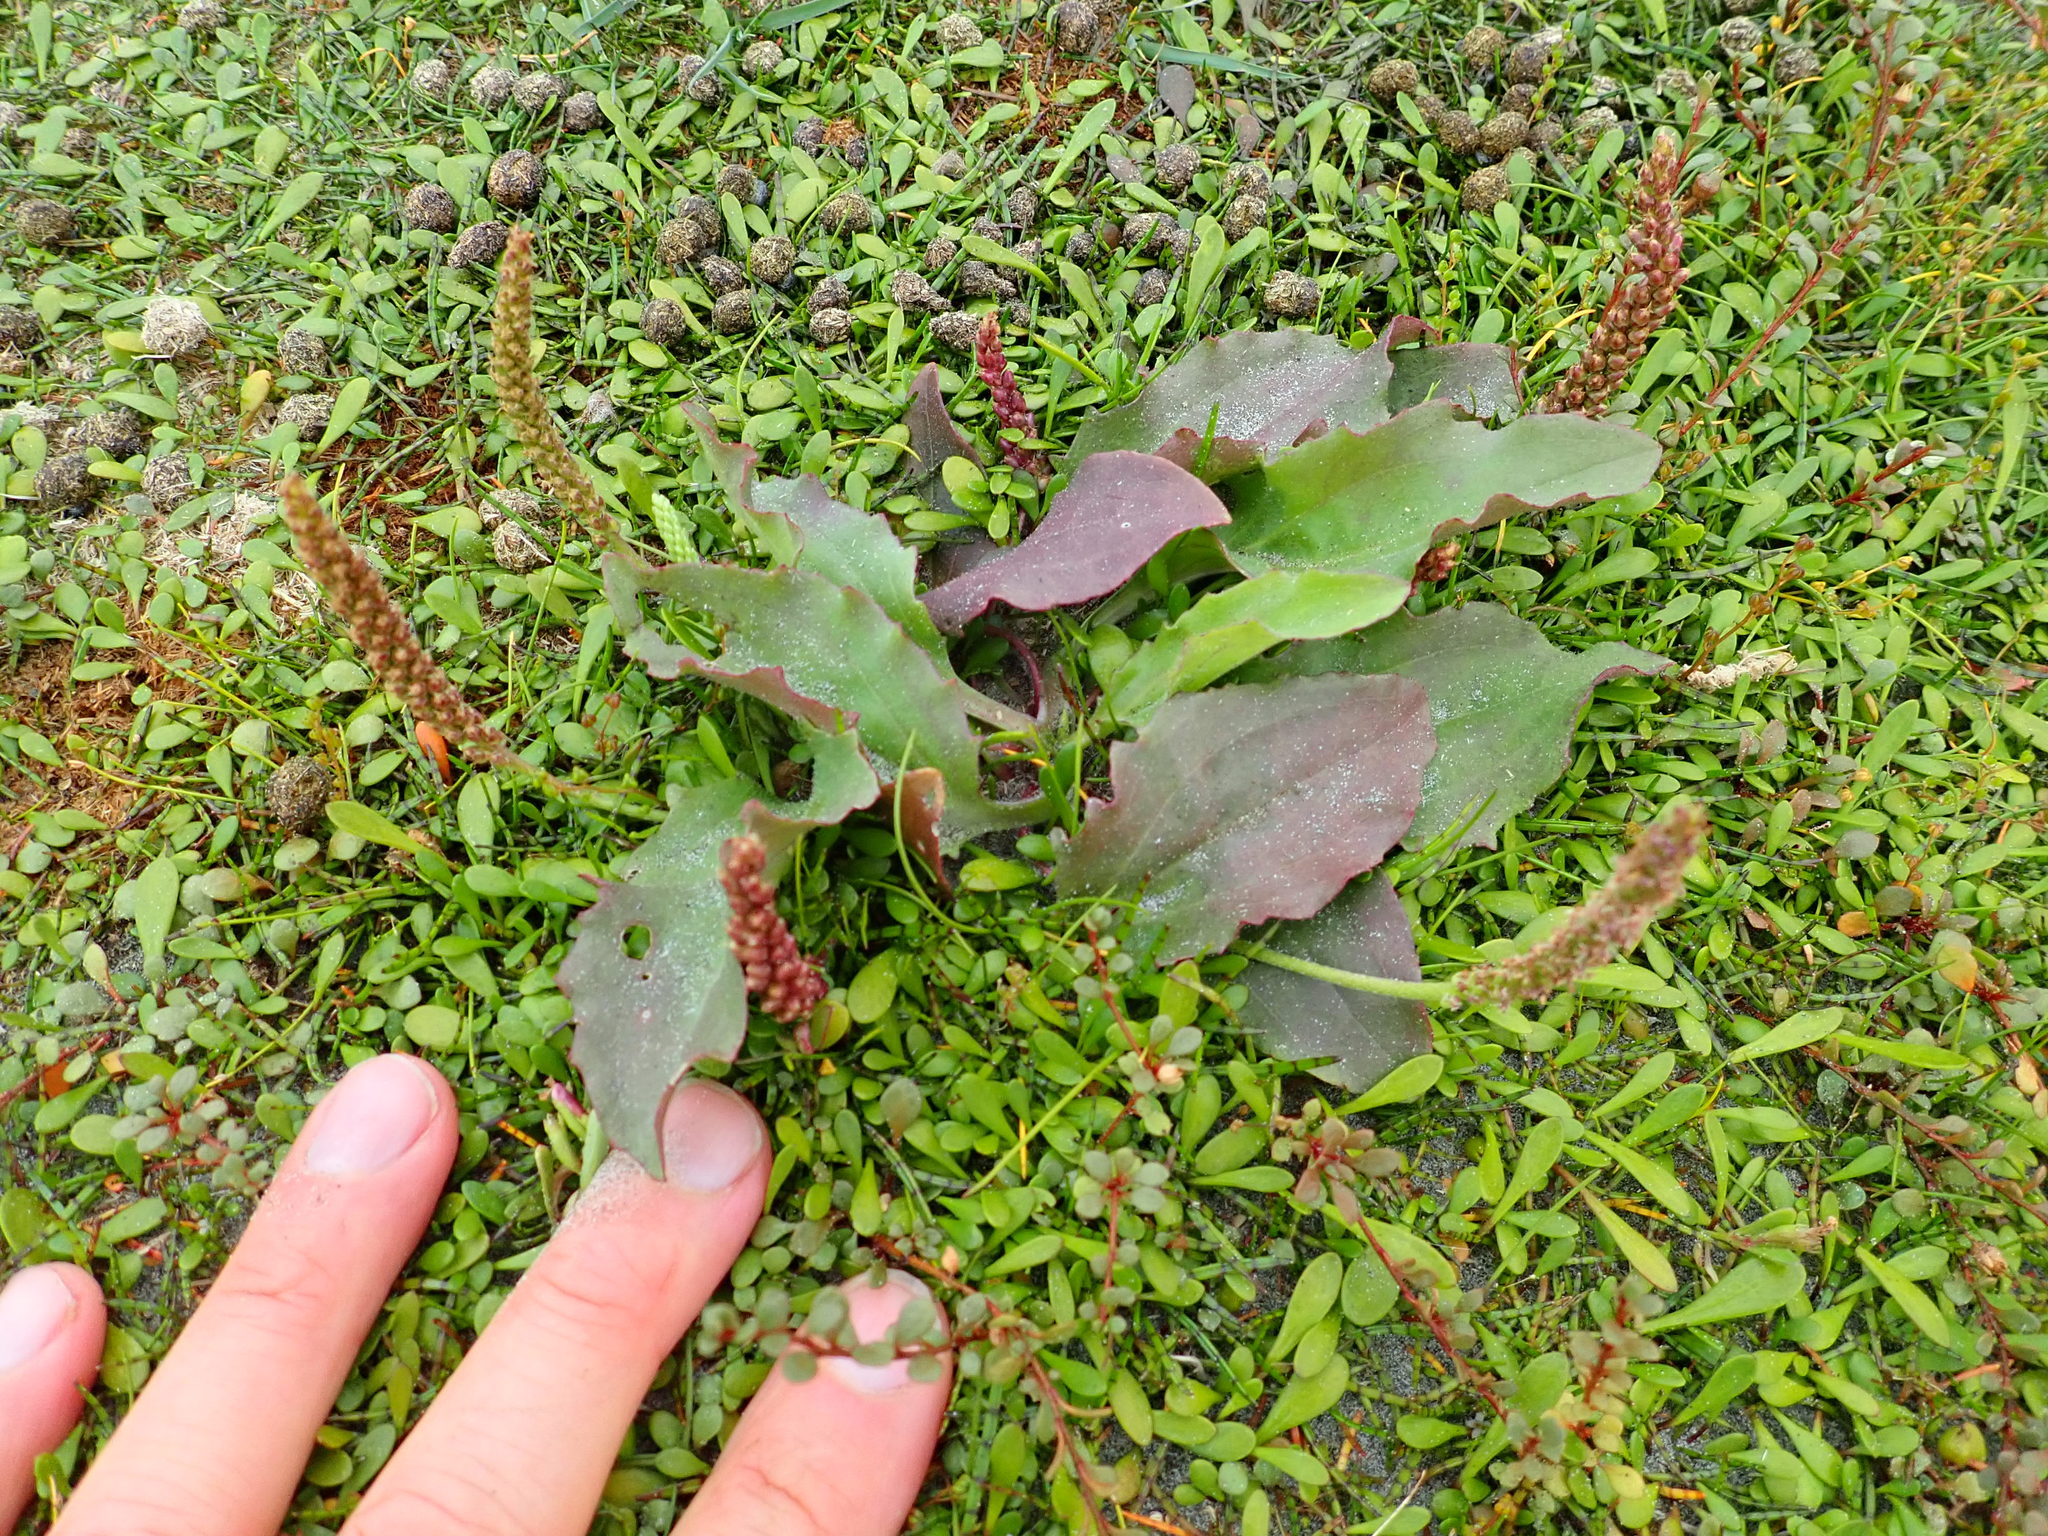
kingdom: Plantae
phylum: Tracheophyta
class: Magnoliopsida
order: Lamiales
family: Plantaginaceae
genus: Plantago
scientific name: Plantago australis
